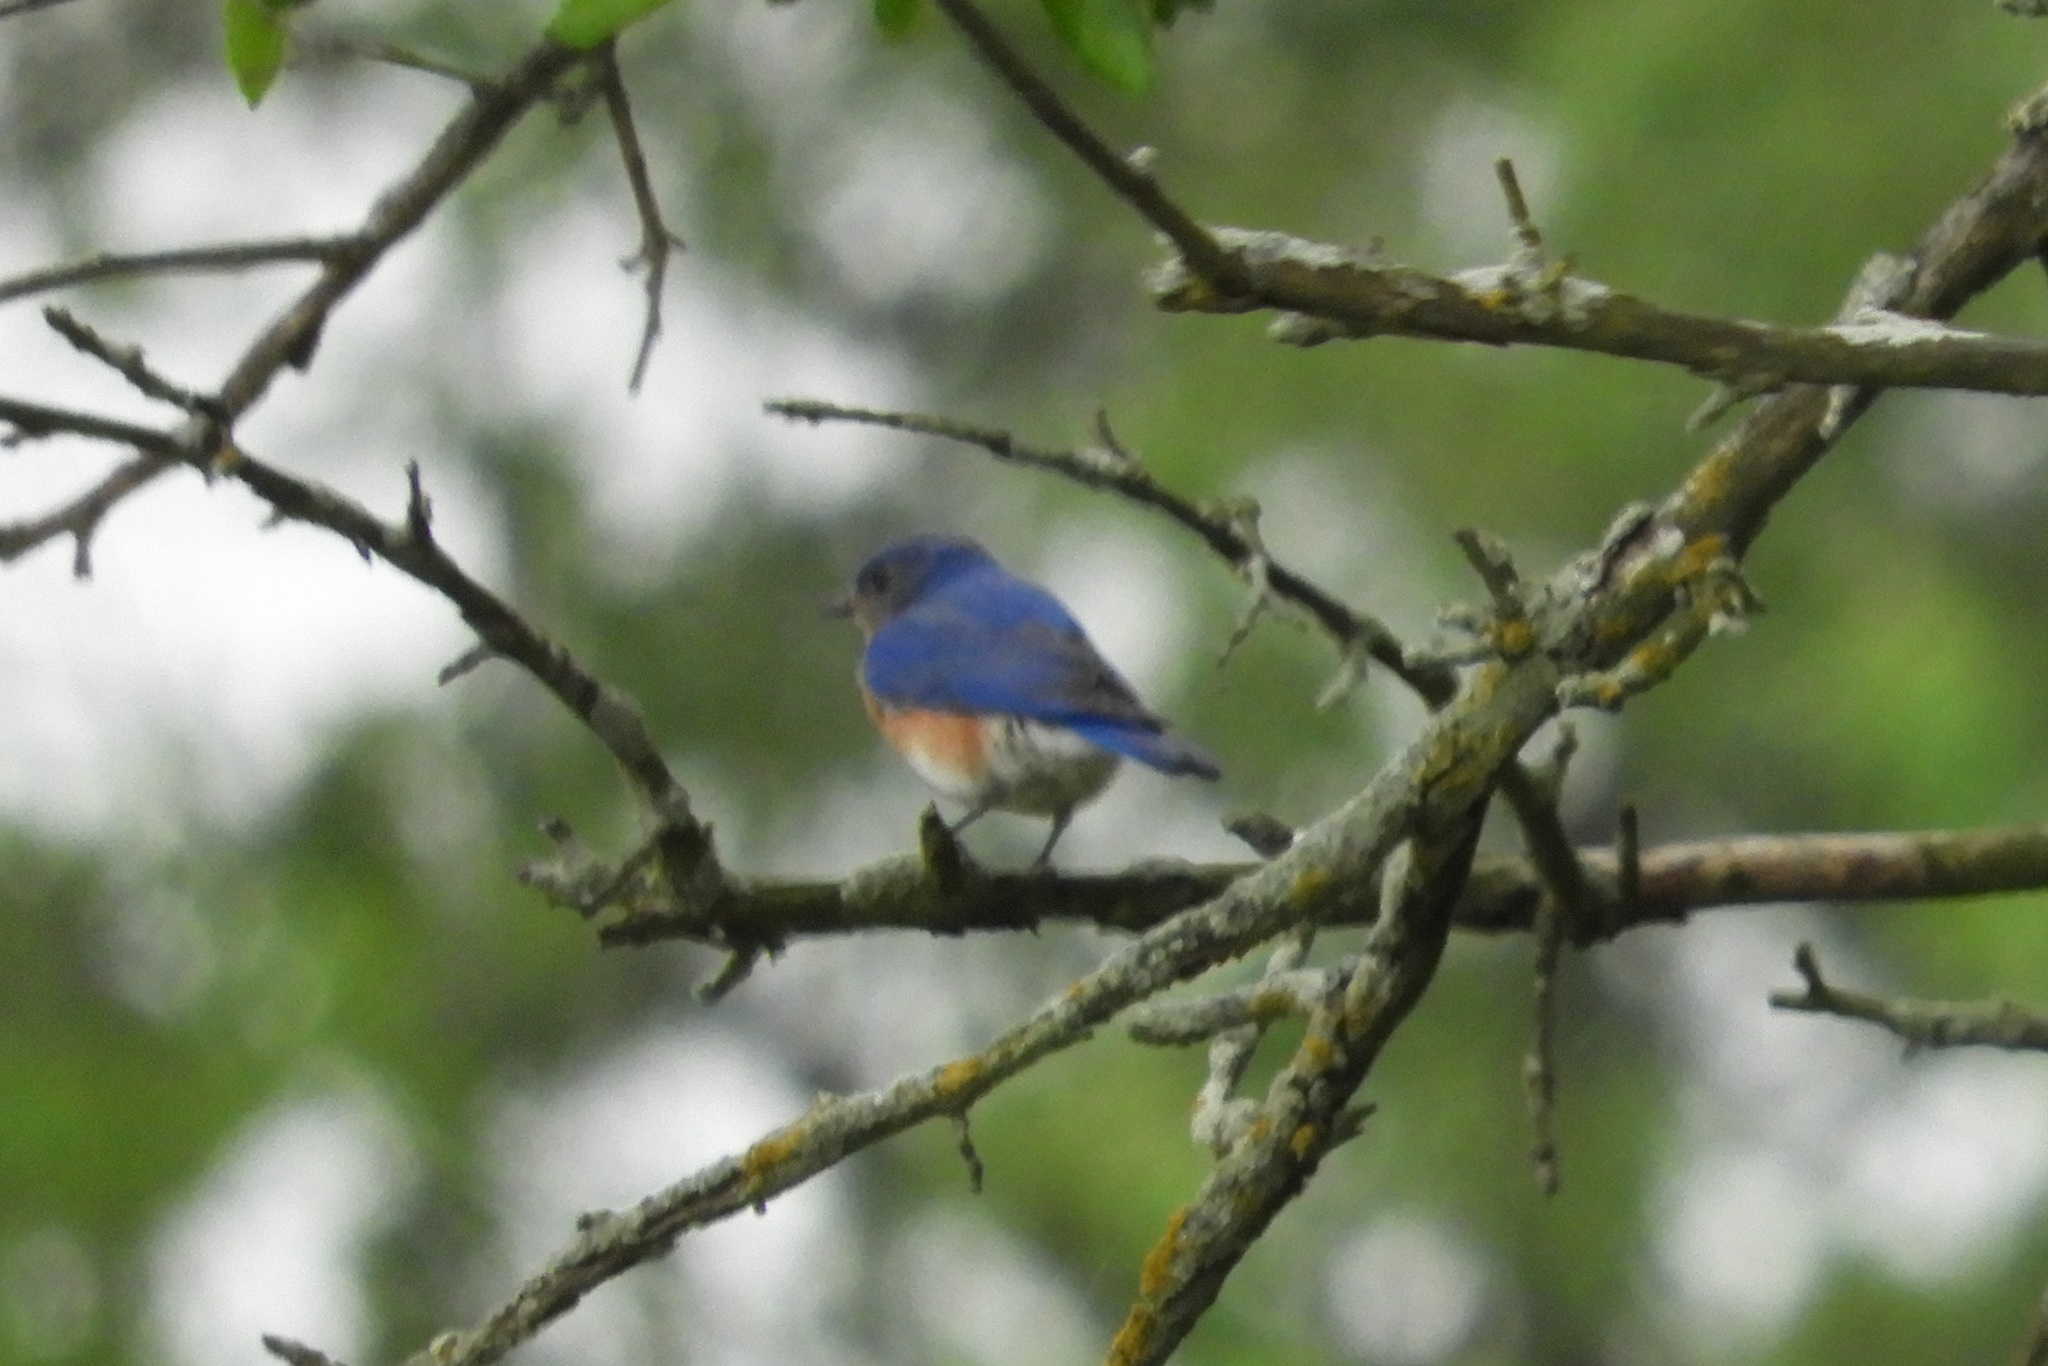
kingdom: Animalia
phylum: Chordata
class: Aves
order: Passeriformes
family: Turdidae
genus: Sialia
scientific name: Sialia sialis
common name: Eastern bluebird
